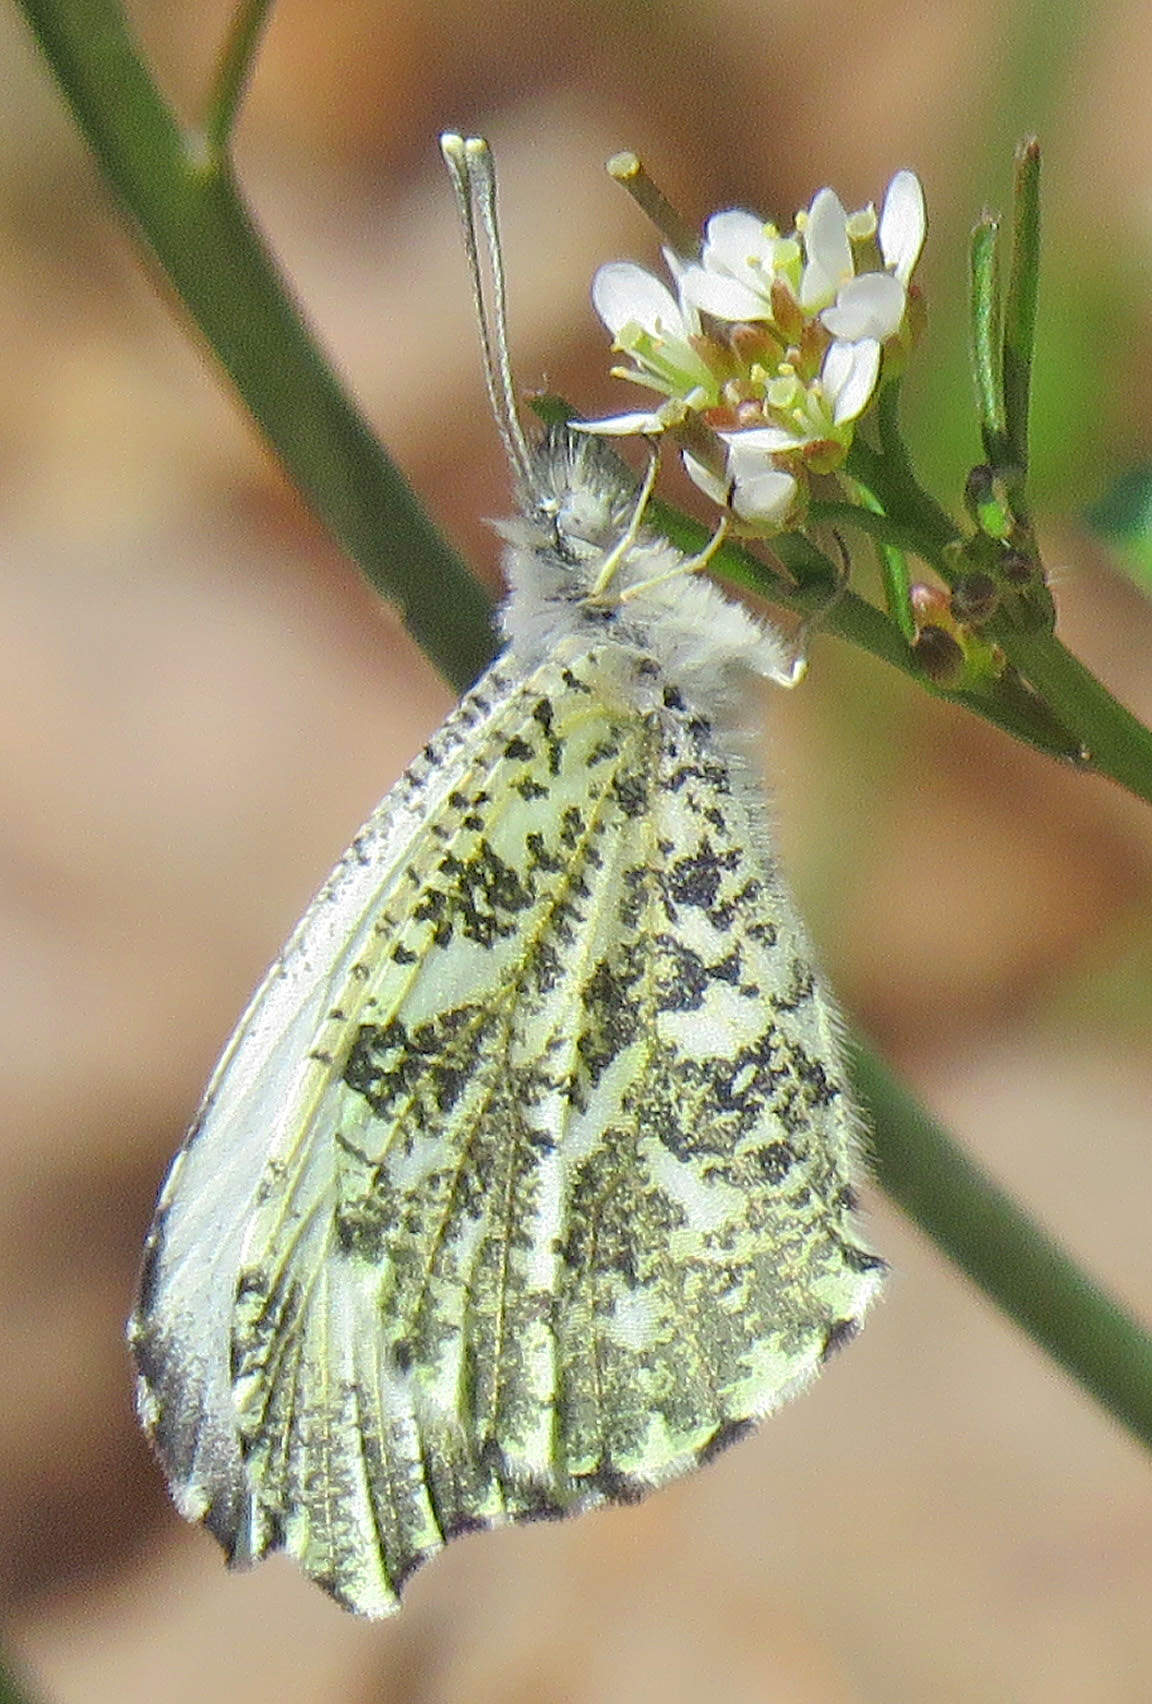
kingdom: Animalia
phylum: Arthropoda
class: Insecta
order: Lepidoptera
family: Pieridae
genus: Anthocharis
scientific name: Anthocharis midea
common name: Falcate orangetip
